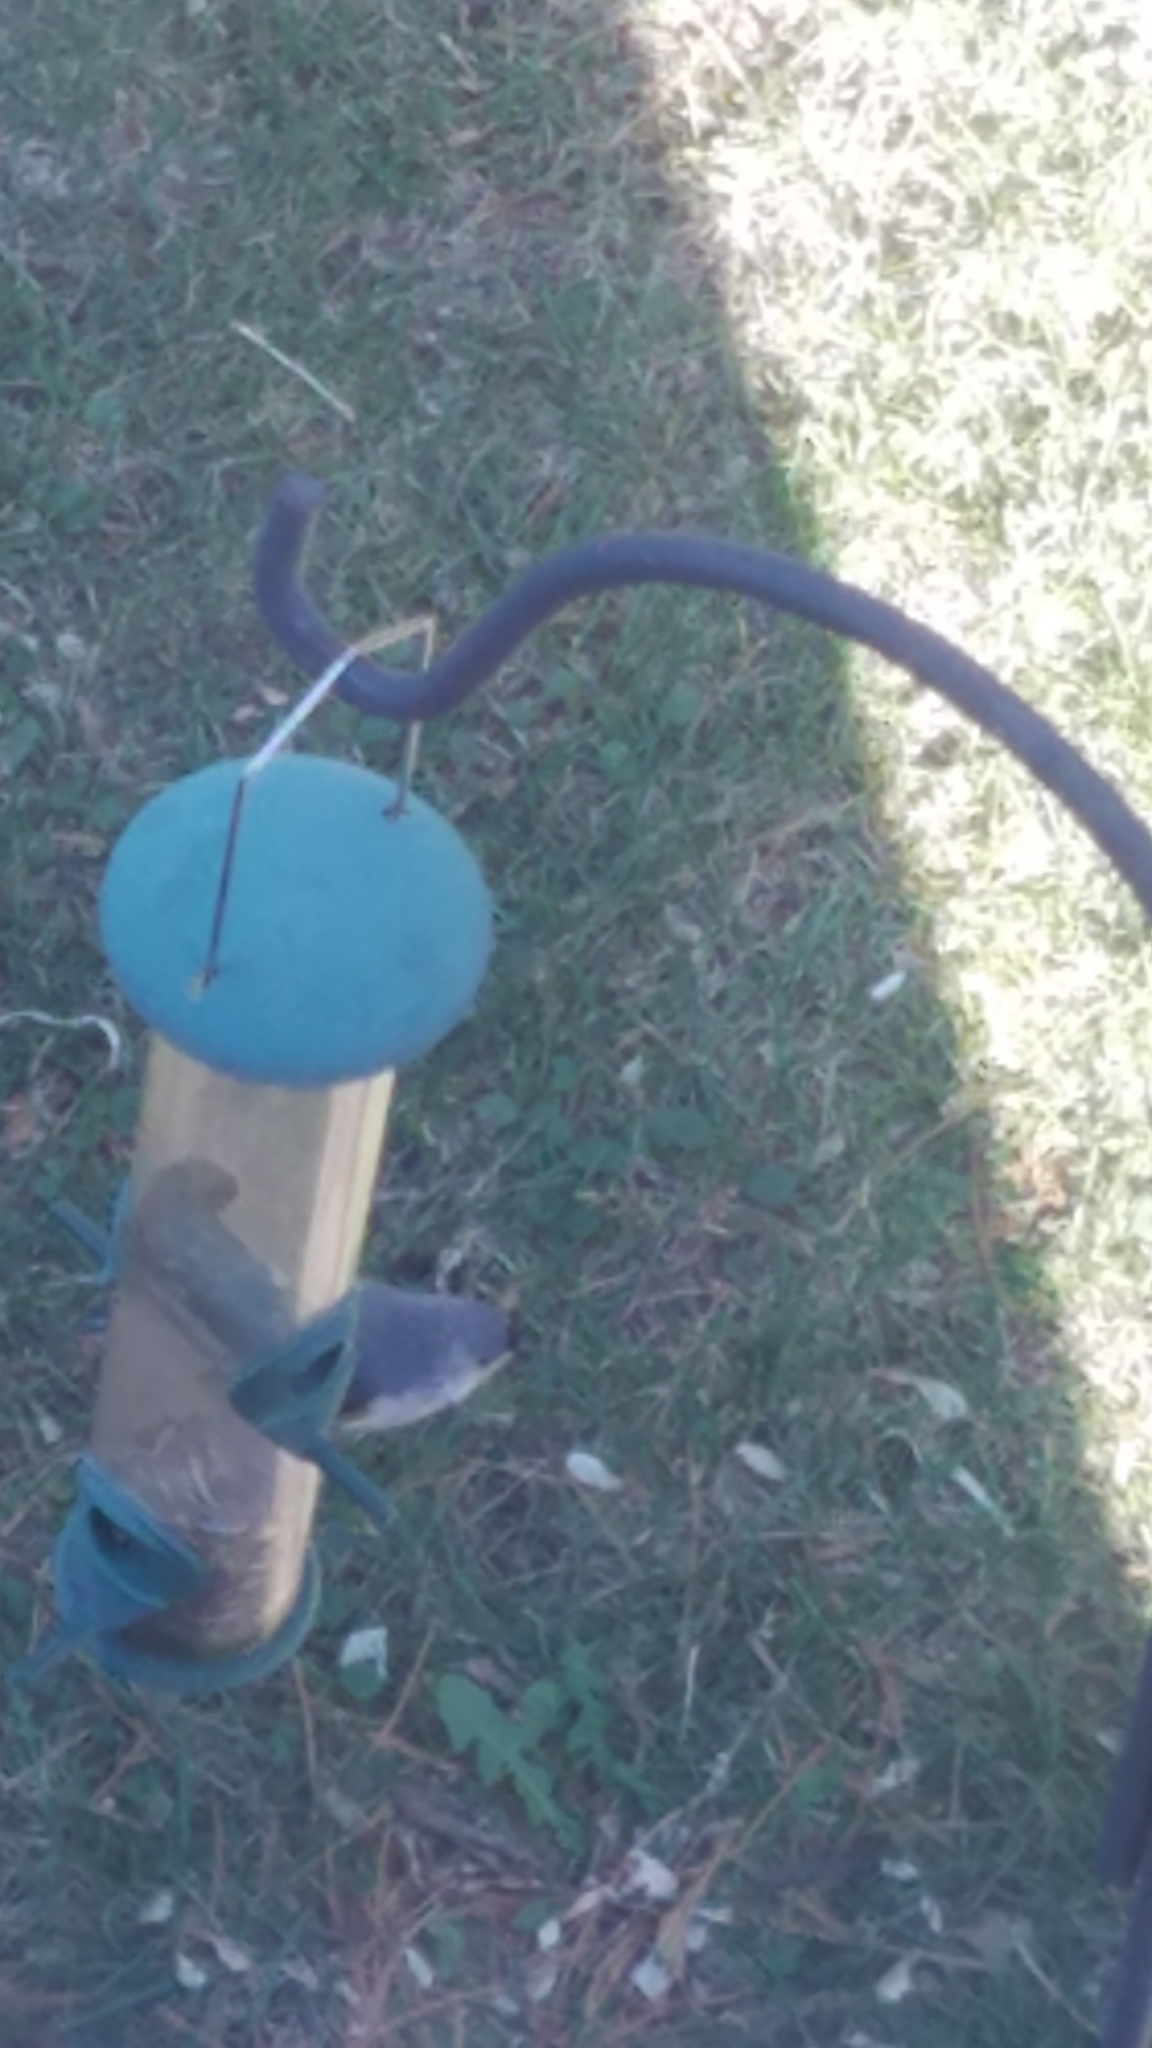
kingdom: Animalia
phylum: Chordata
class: Aves
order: Passeriformes
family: Paridae
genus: Baeolophus
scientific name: Baeolophus bicolor
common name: Tufted titmouse
